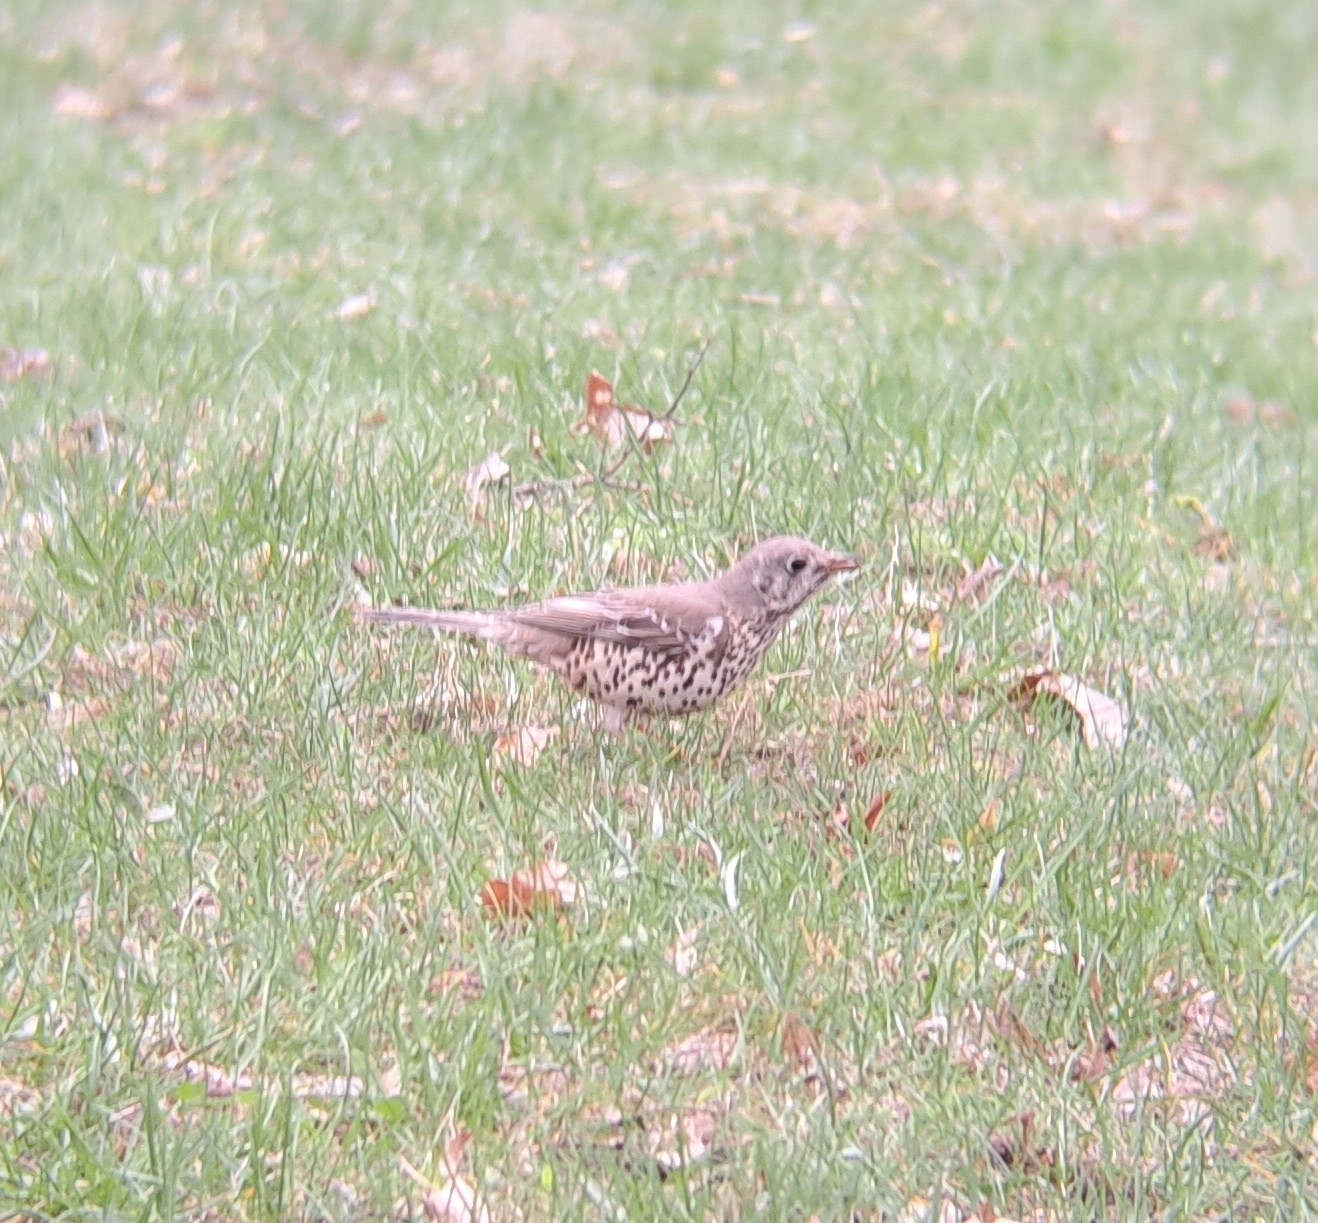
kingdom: Animalia
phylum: Chordata
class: Aves
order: Passeriformes
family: Turdidae
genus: Turdus
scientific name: Turdus viscivorus
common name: Mistle thrush
